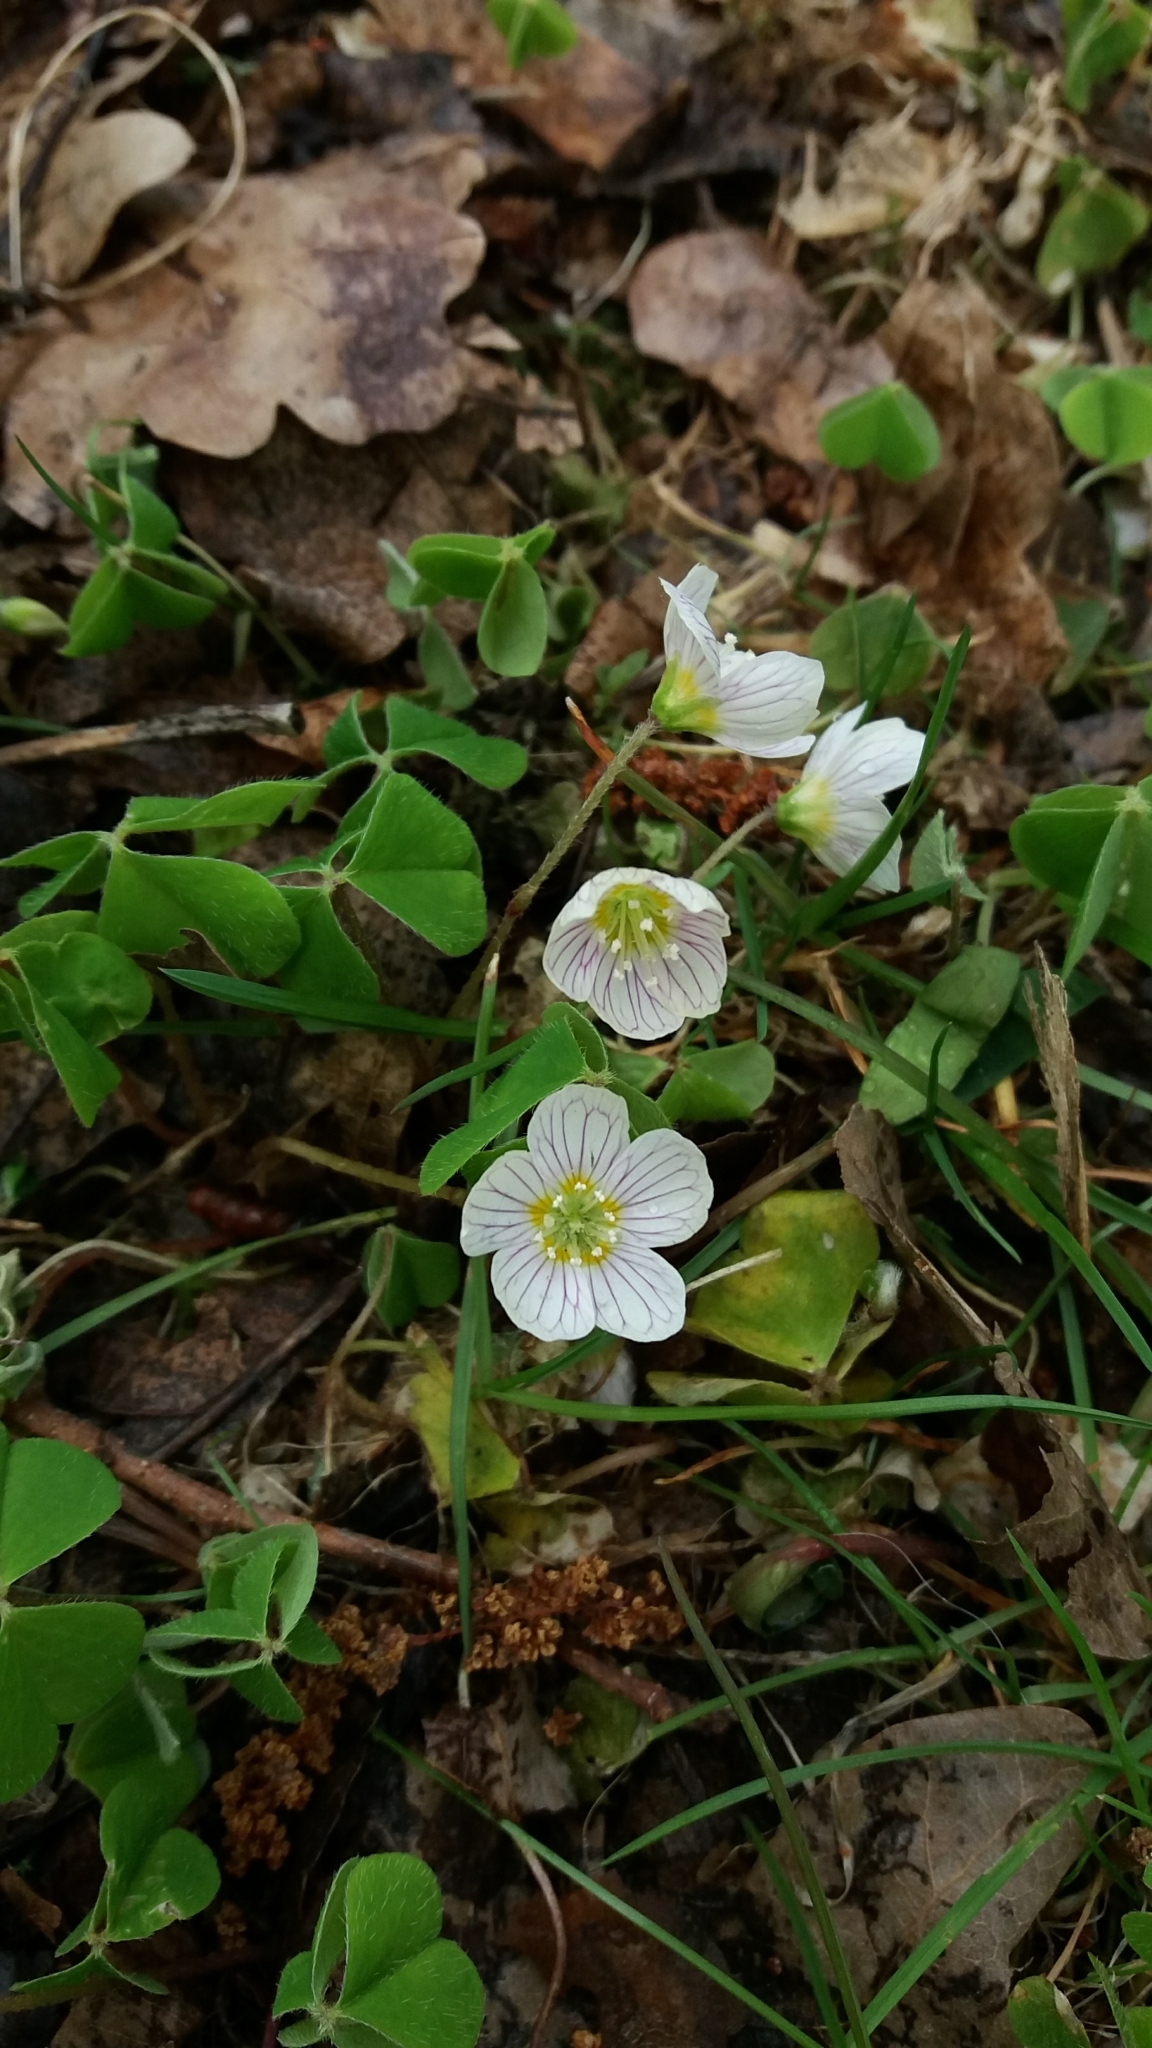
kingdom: Plantae
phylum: Tracheophyta
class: Magnoliopsida
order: Oxalidales
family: Oxalidaceae
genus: Oxalis
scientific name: Oxalis acetosella
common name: Wood-sorrel
